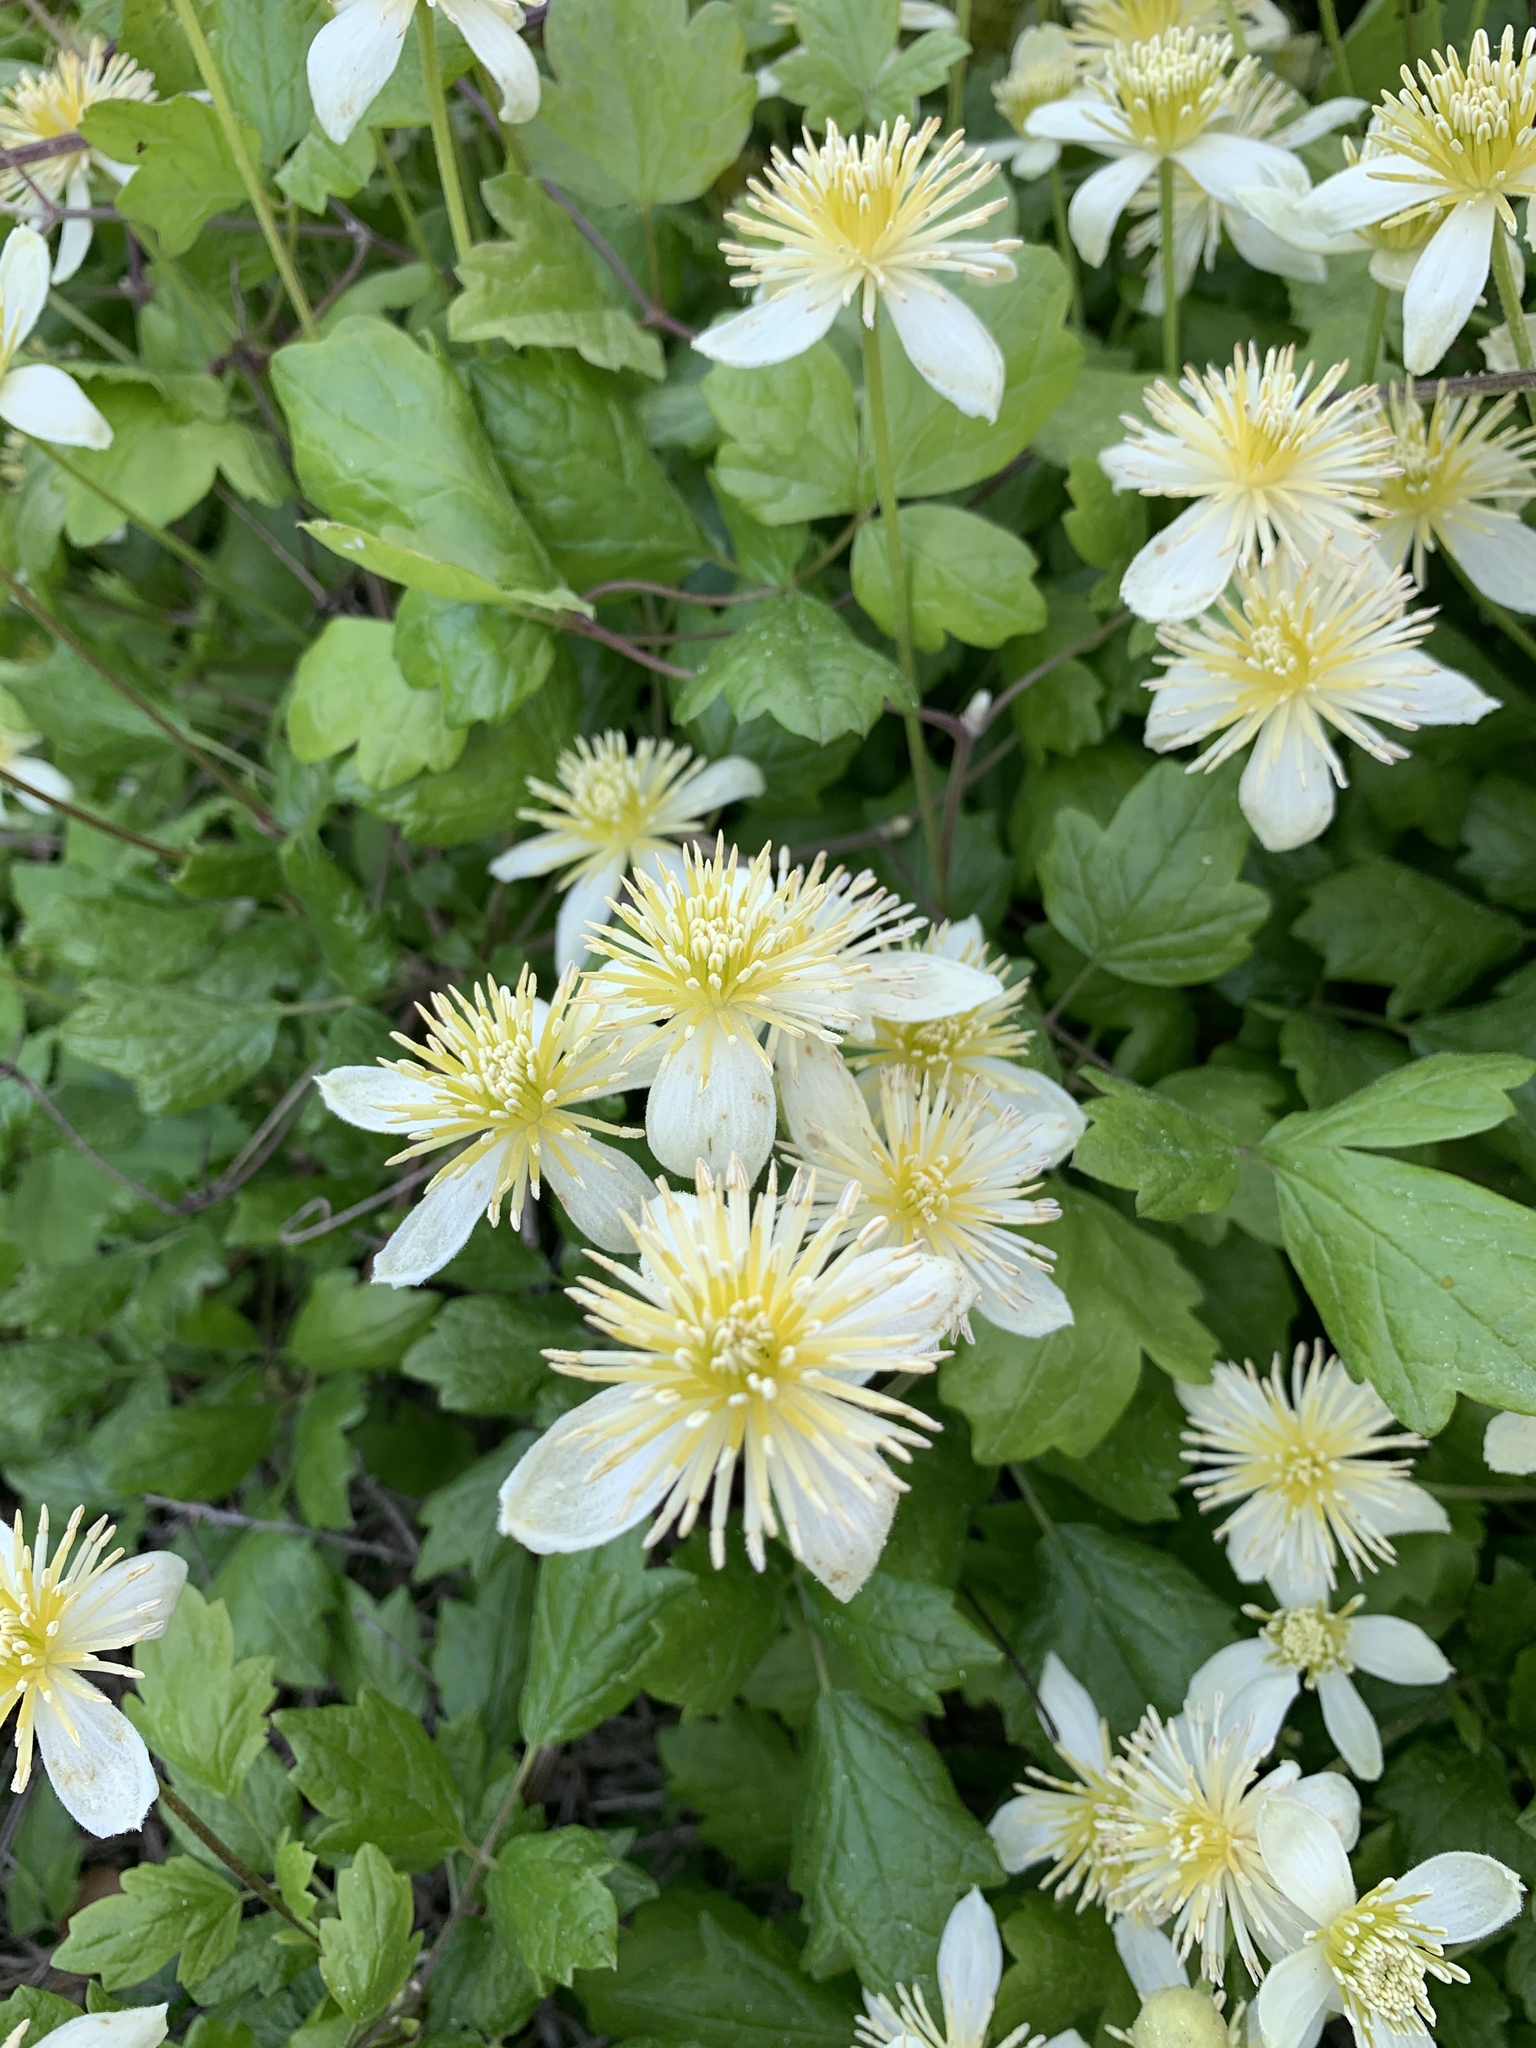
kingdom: Plantae
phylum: Tracheophyta
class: Magnoliopsida
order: Ranunculales
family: Ranunculaceae
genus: Clematis
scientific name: Clematis lasiantha
